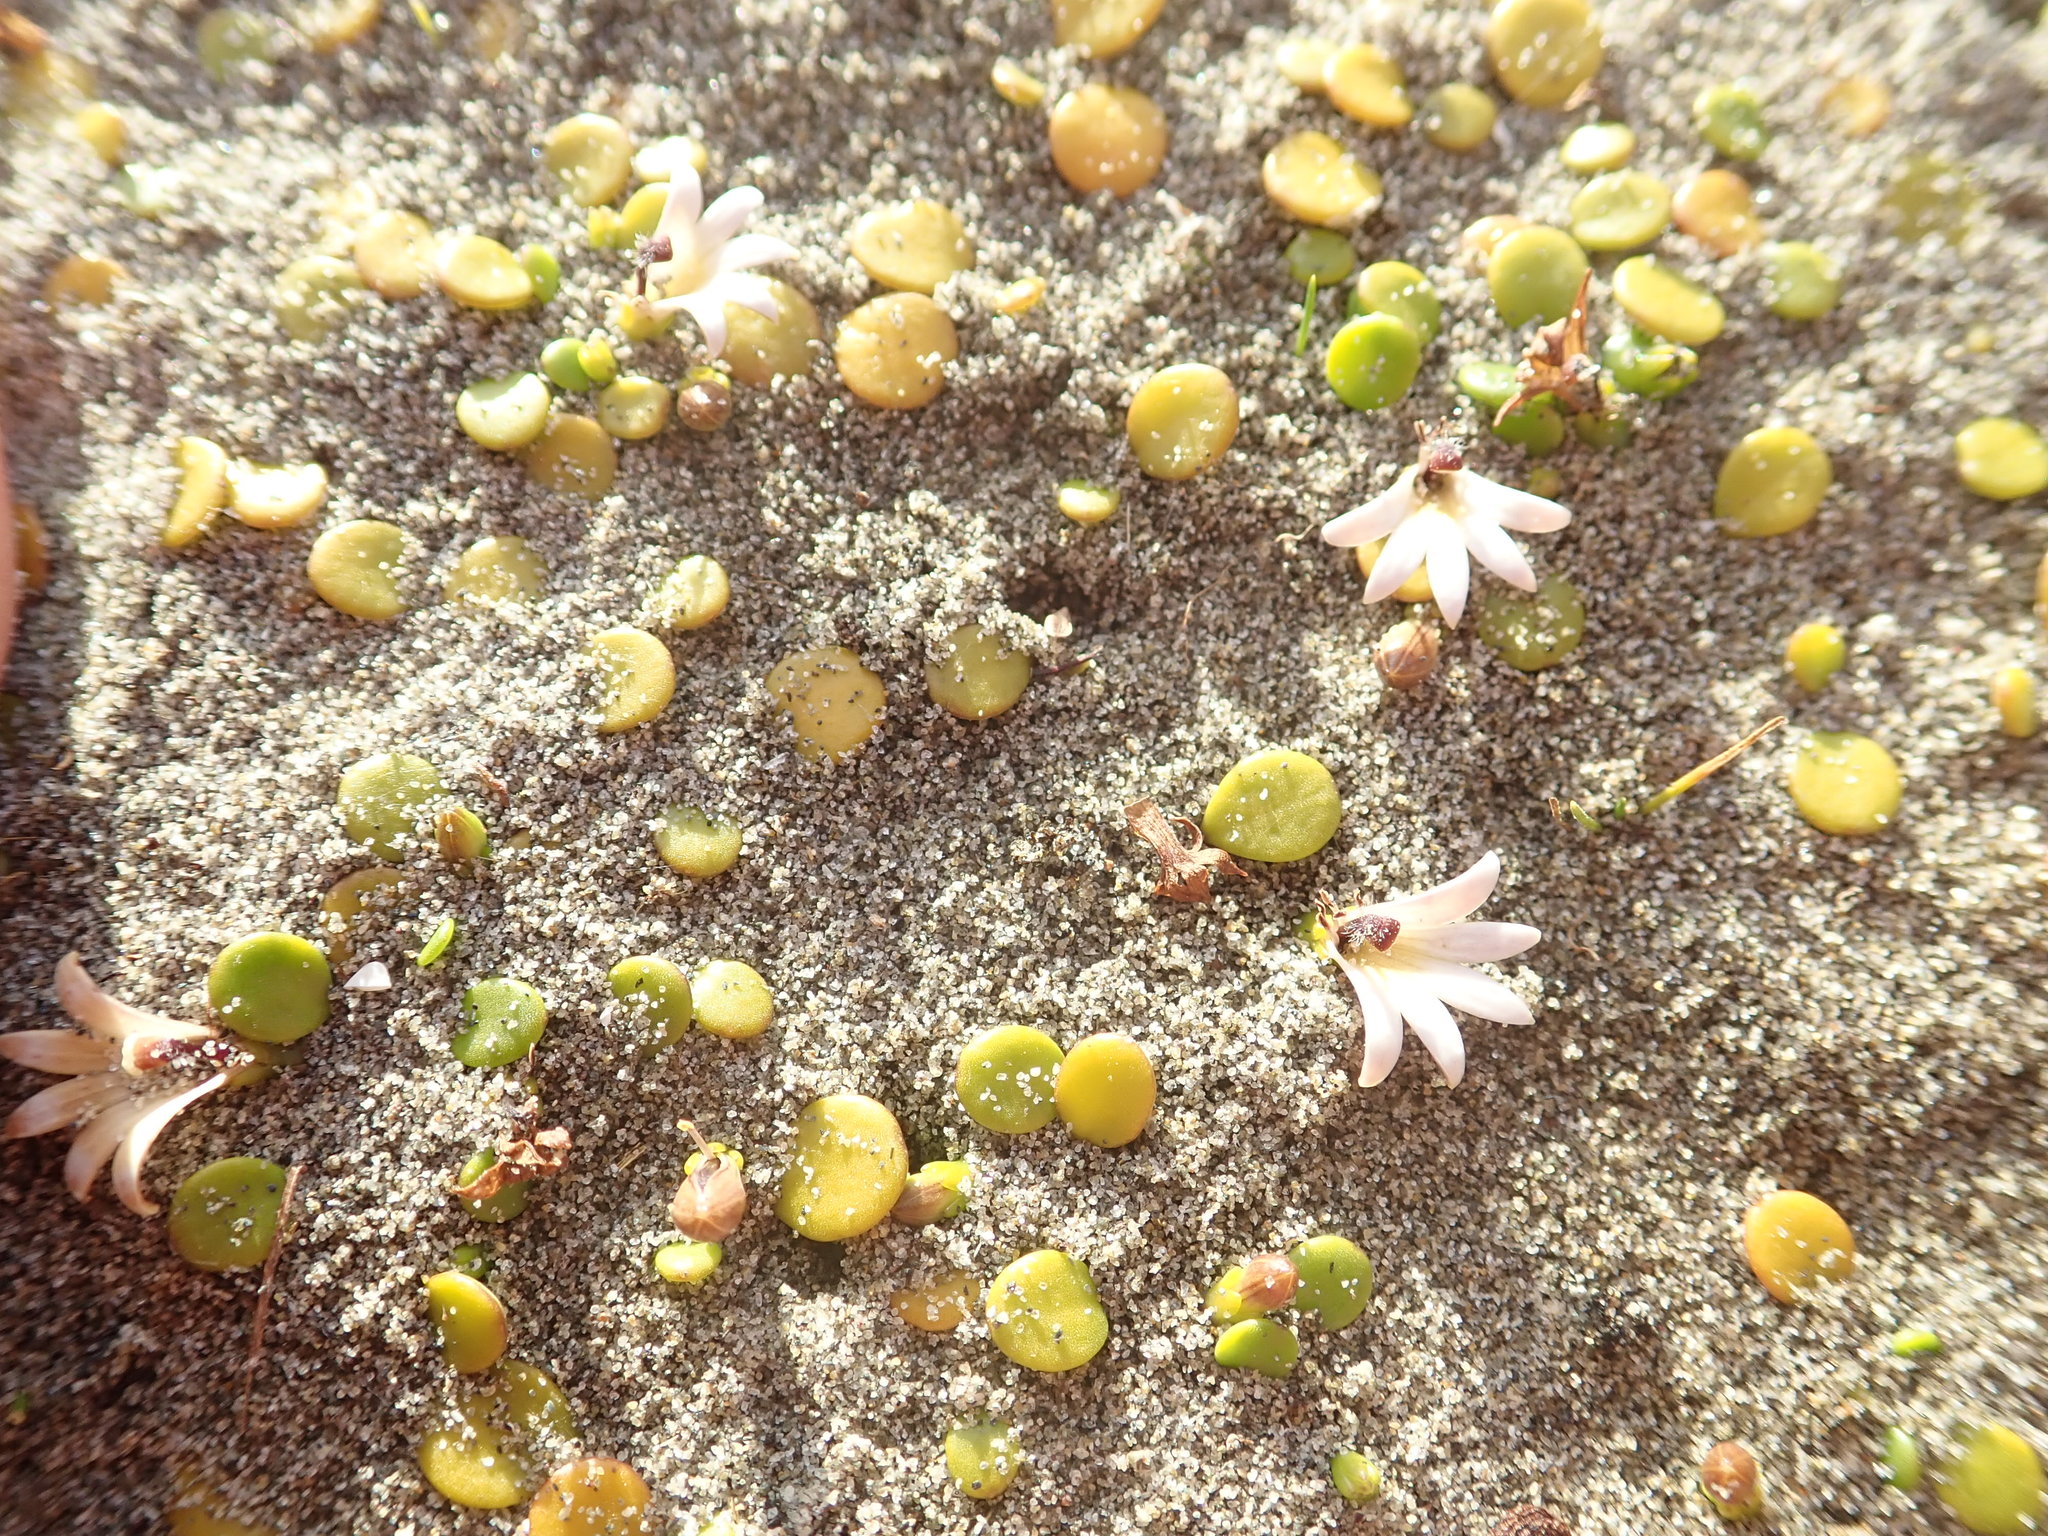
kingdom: Plantae
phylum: Tracheophyta
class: Magnoliopsida
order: Asterales
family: Goodeniaceae
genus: Goodenia
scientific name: Goodenia heenanii
